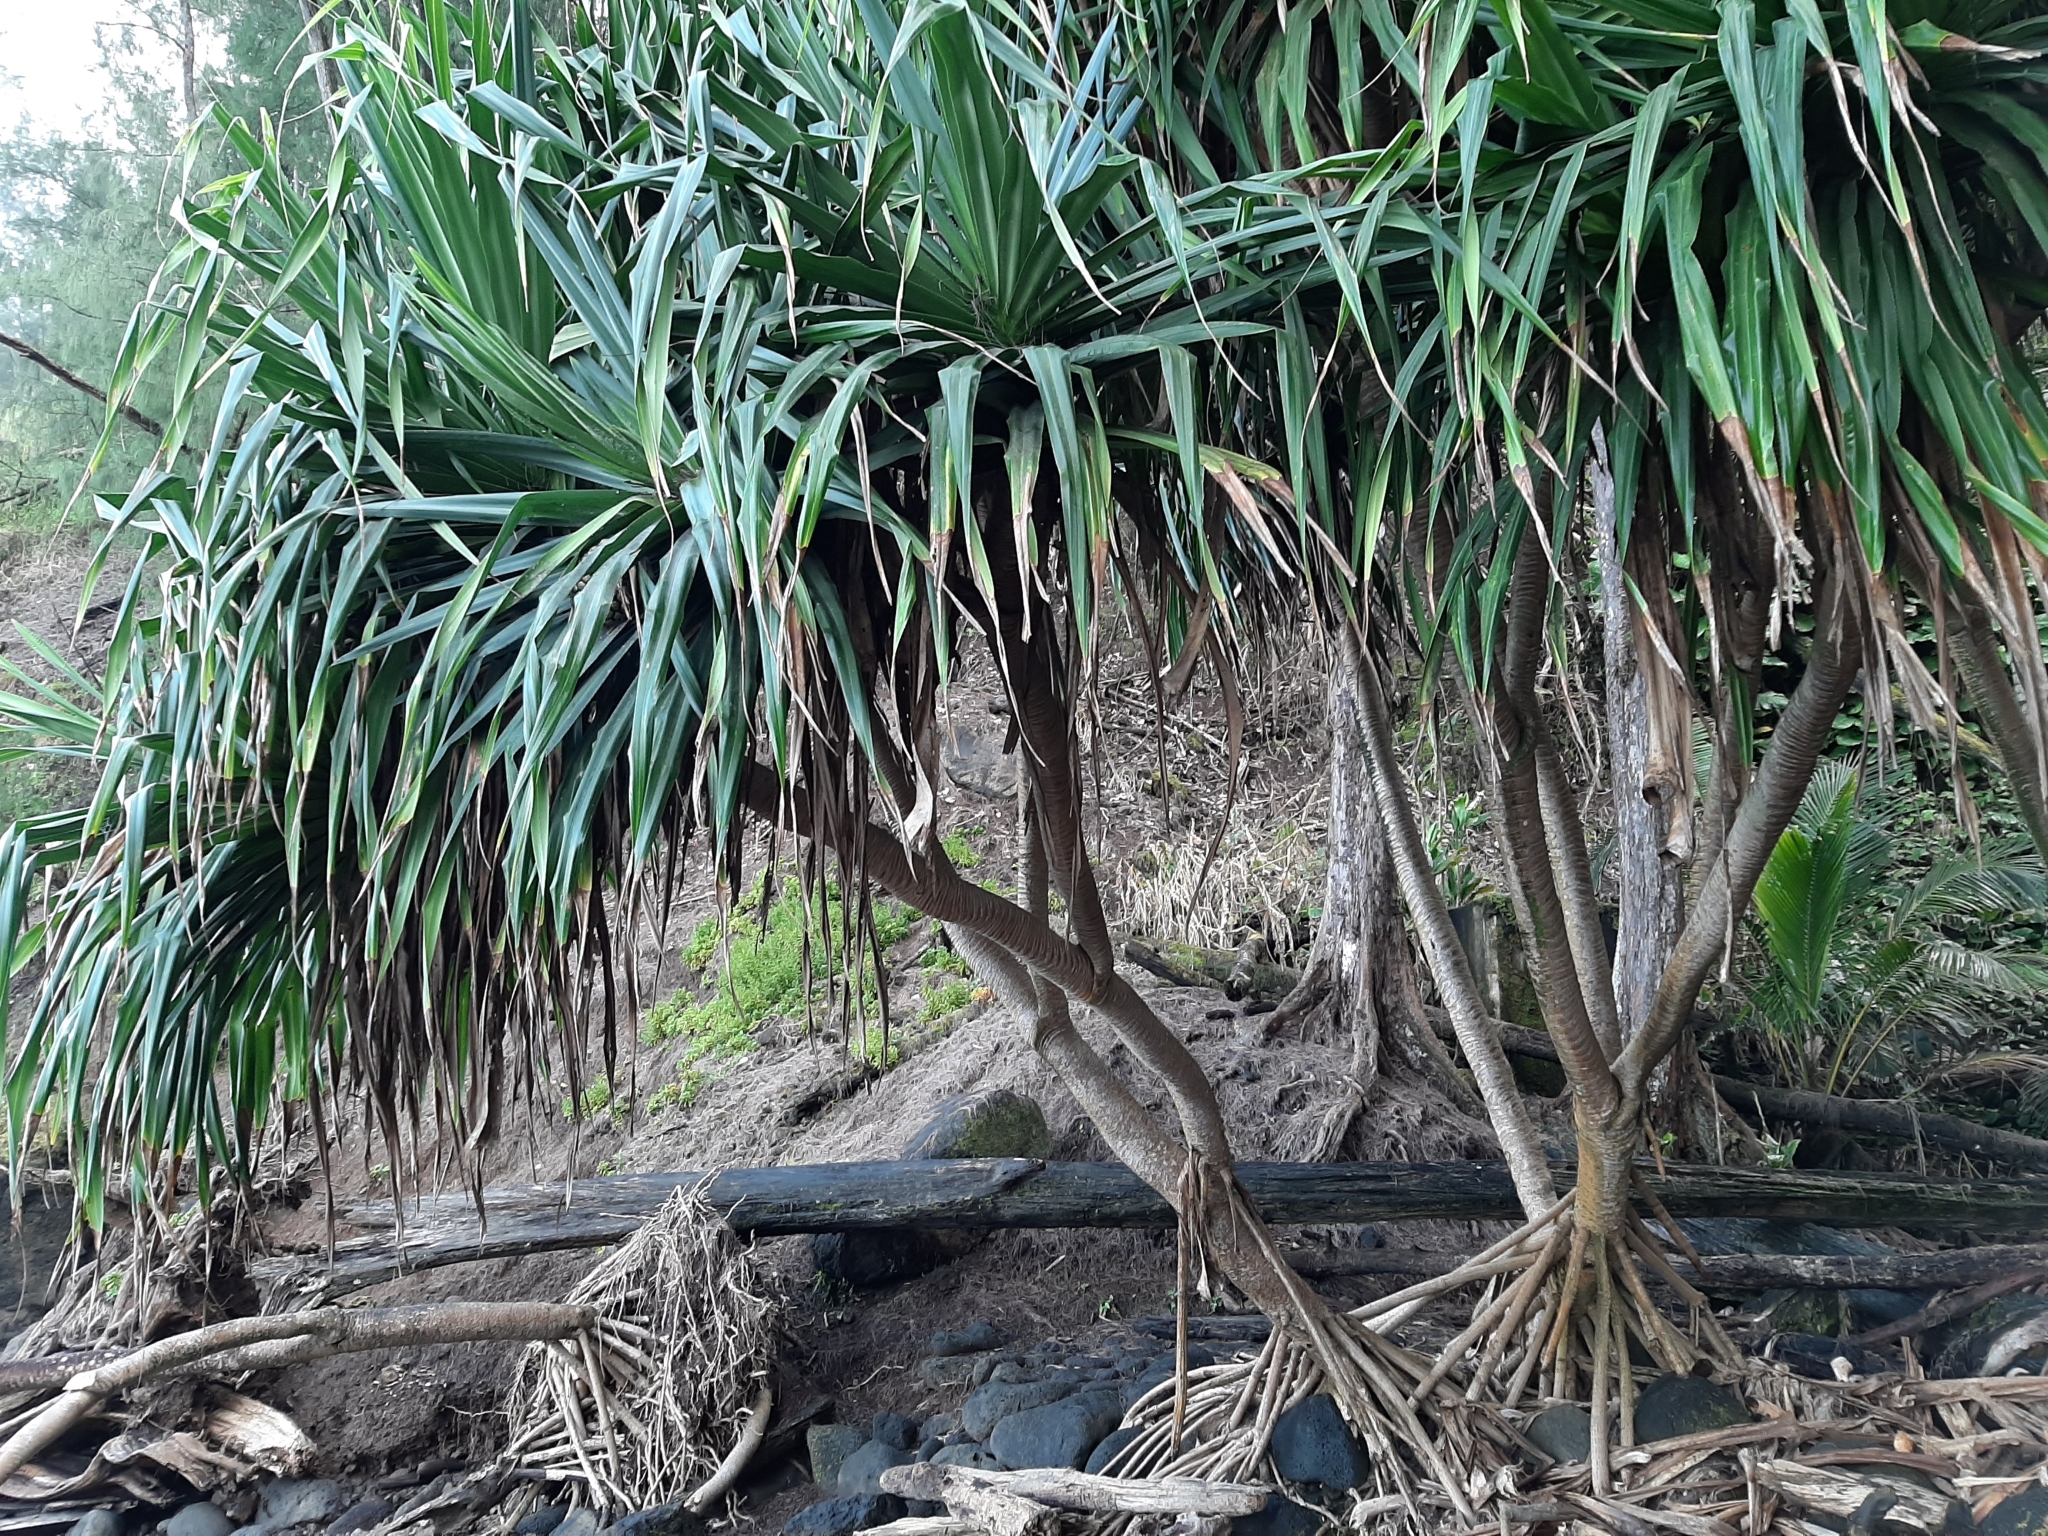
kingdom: Plantae
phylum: Tracheophyta
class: Liliopsida
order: Pandanales
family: Pandanaceae
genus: Pandanus
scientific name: Pandanus tectorius
